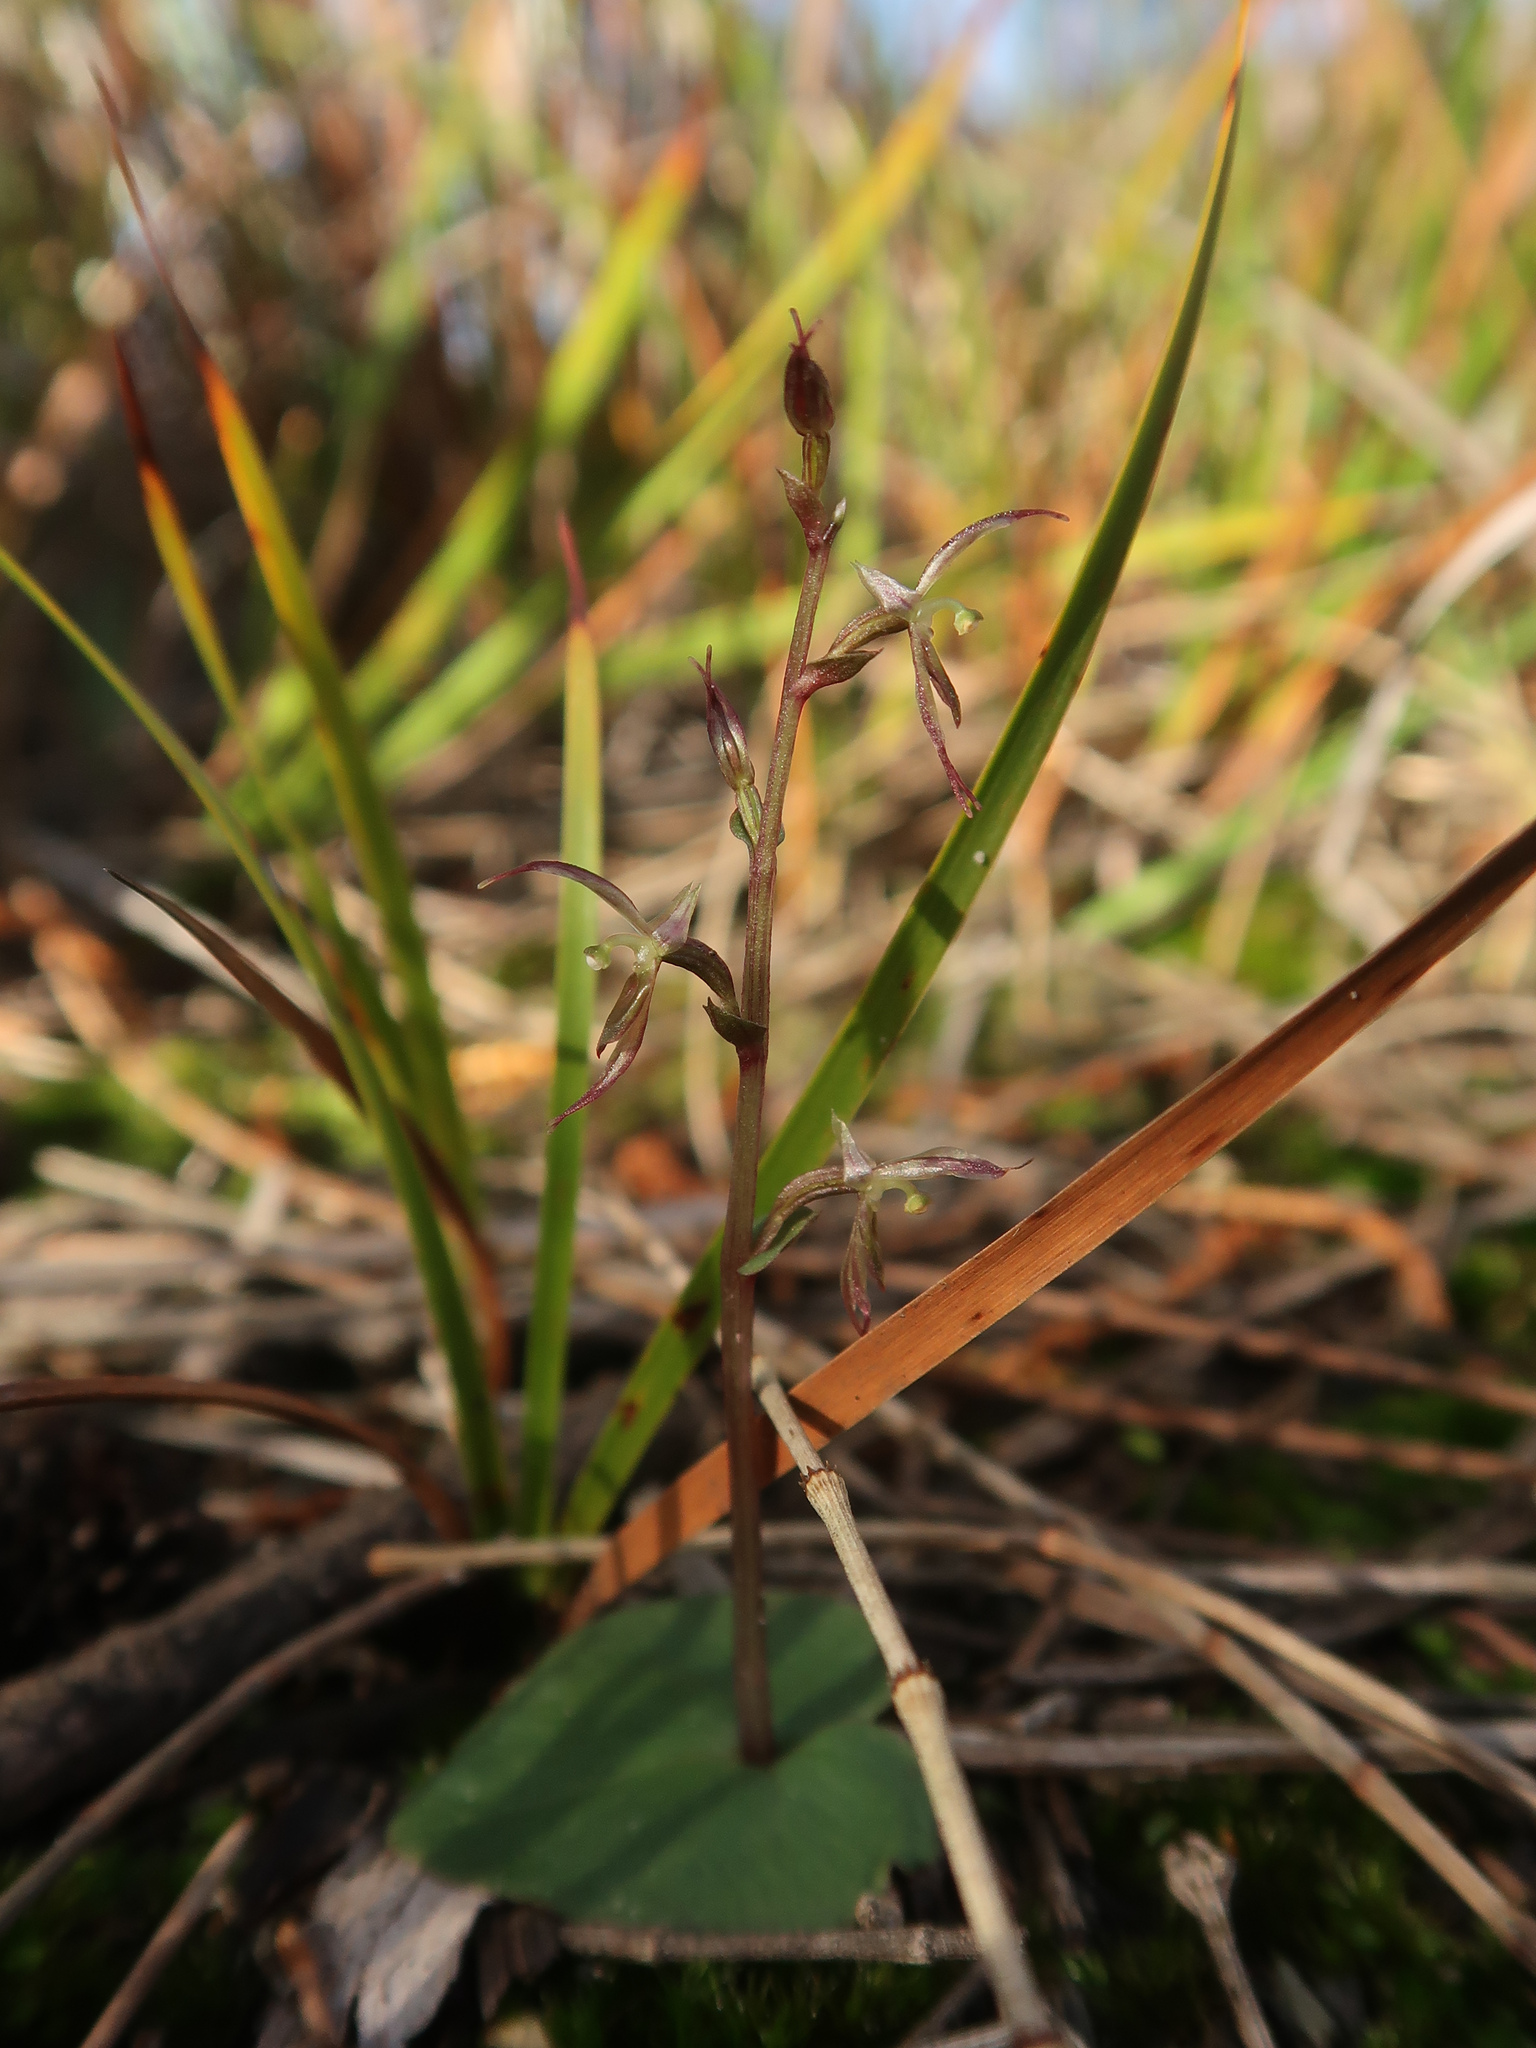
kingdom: Plantae
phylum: Tracheophyta
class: Liliopsida
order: Asparagales
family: Orchidaceae
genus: Acianthus
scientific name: Acianthus pusillus
